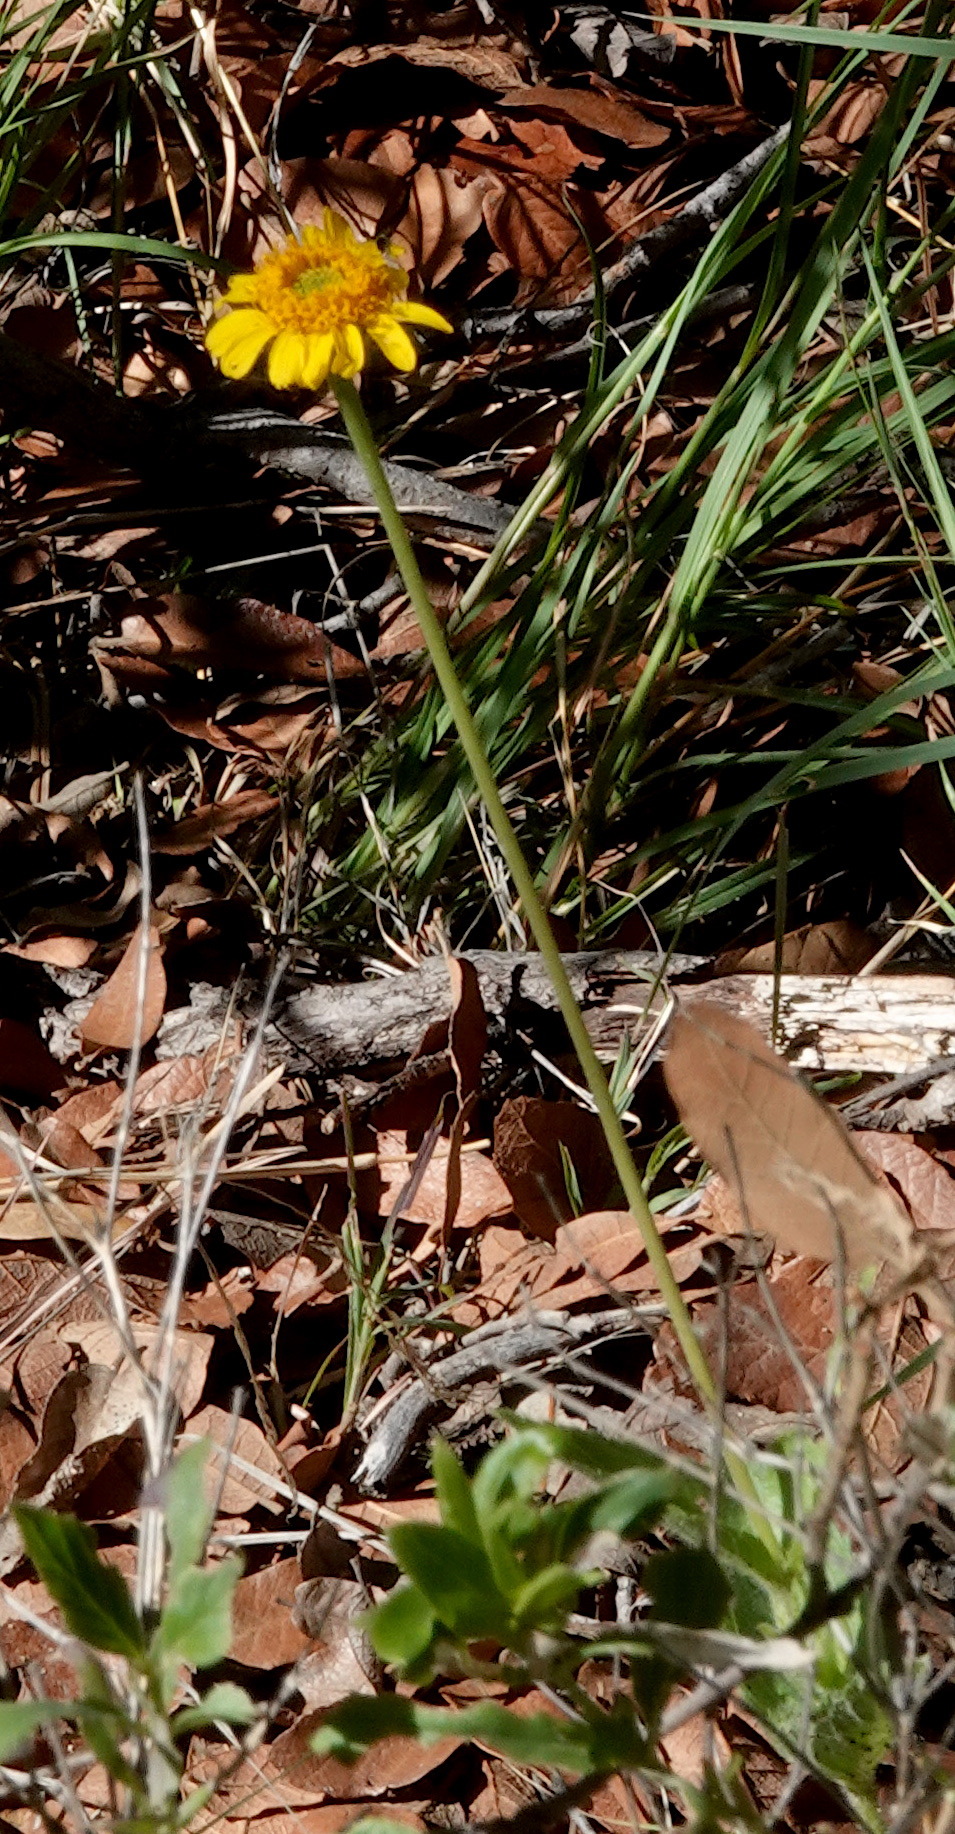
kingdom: Plantae
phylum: Tracheophyta
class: Magnoliopsida
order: Asterales
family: Asteraceae
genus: Lasianthaea
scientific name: Lasianthaea podocephala
